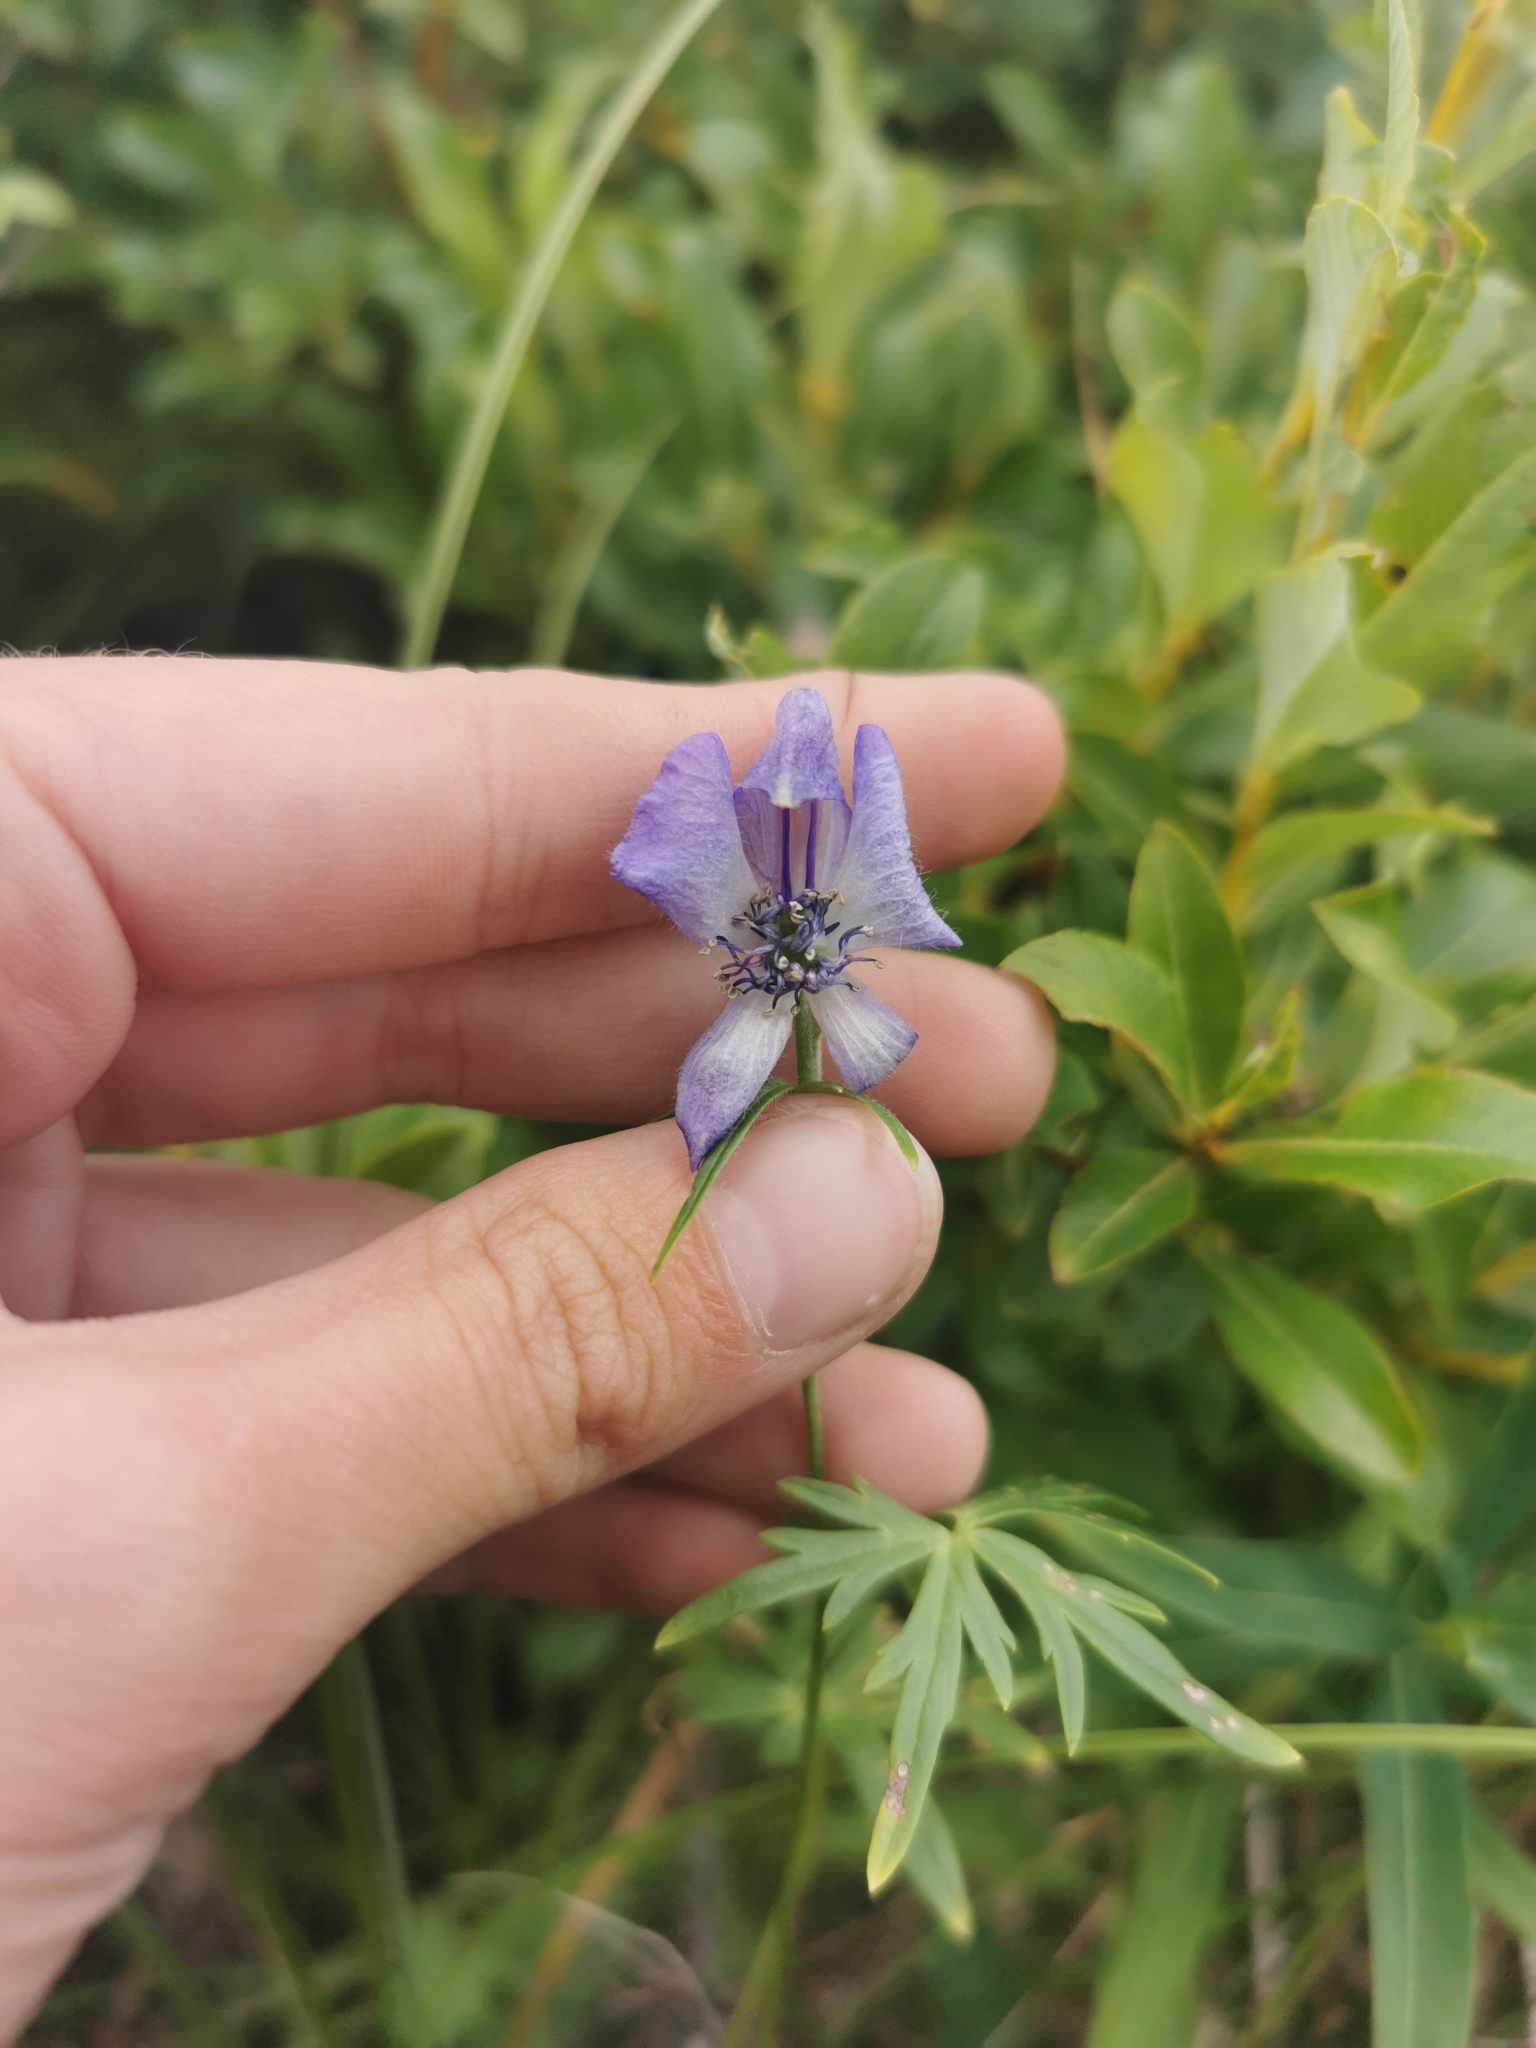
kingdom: Plantae
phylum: Tracheophyta
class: Magnoliopsida
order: Ranunculales
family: Ranunculaceae
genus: Aconitum
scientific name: Aconitum delphiniifolium
